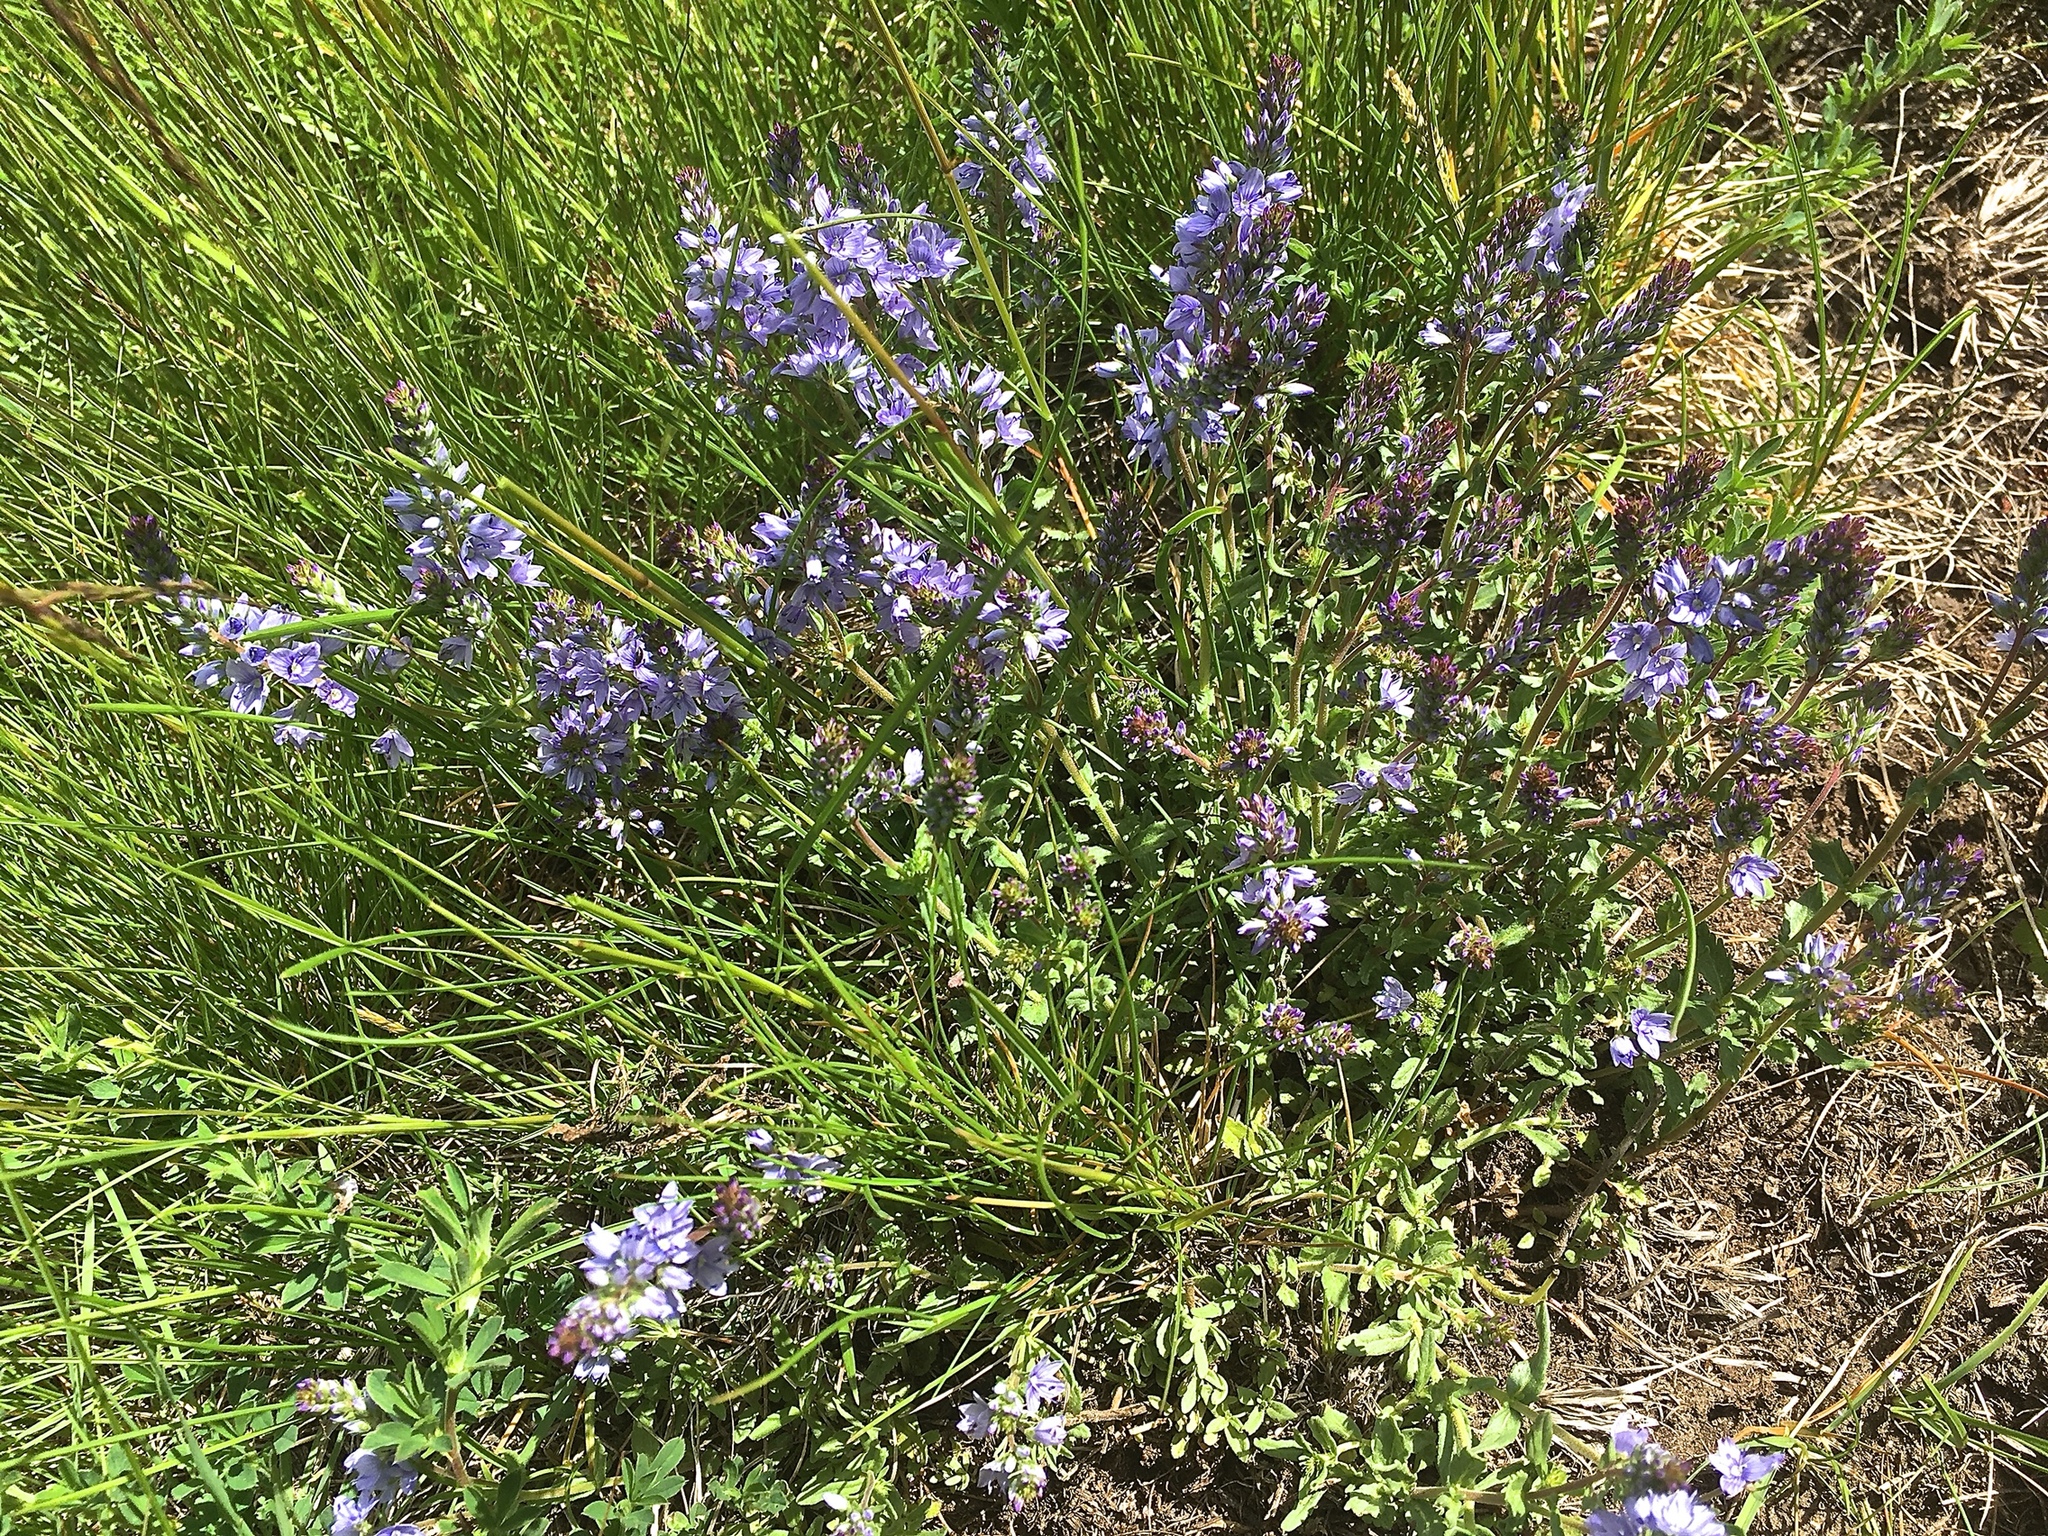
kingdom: Plantae
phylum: Tracheophyta
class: Magnoliopsida
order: Lamiales
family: Plantaginaceae
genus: Veronica
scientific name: Veronica prostrata
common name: Prostrate speedwell
